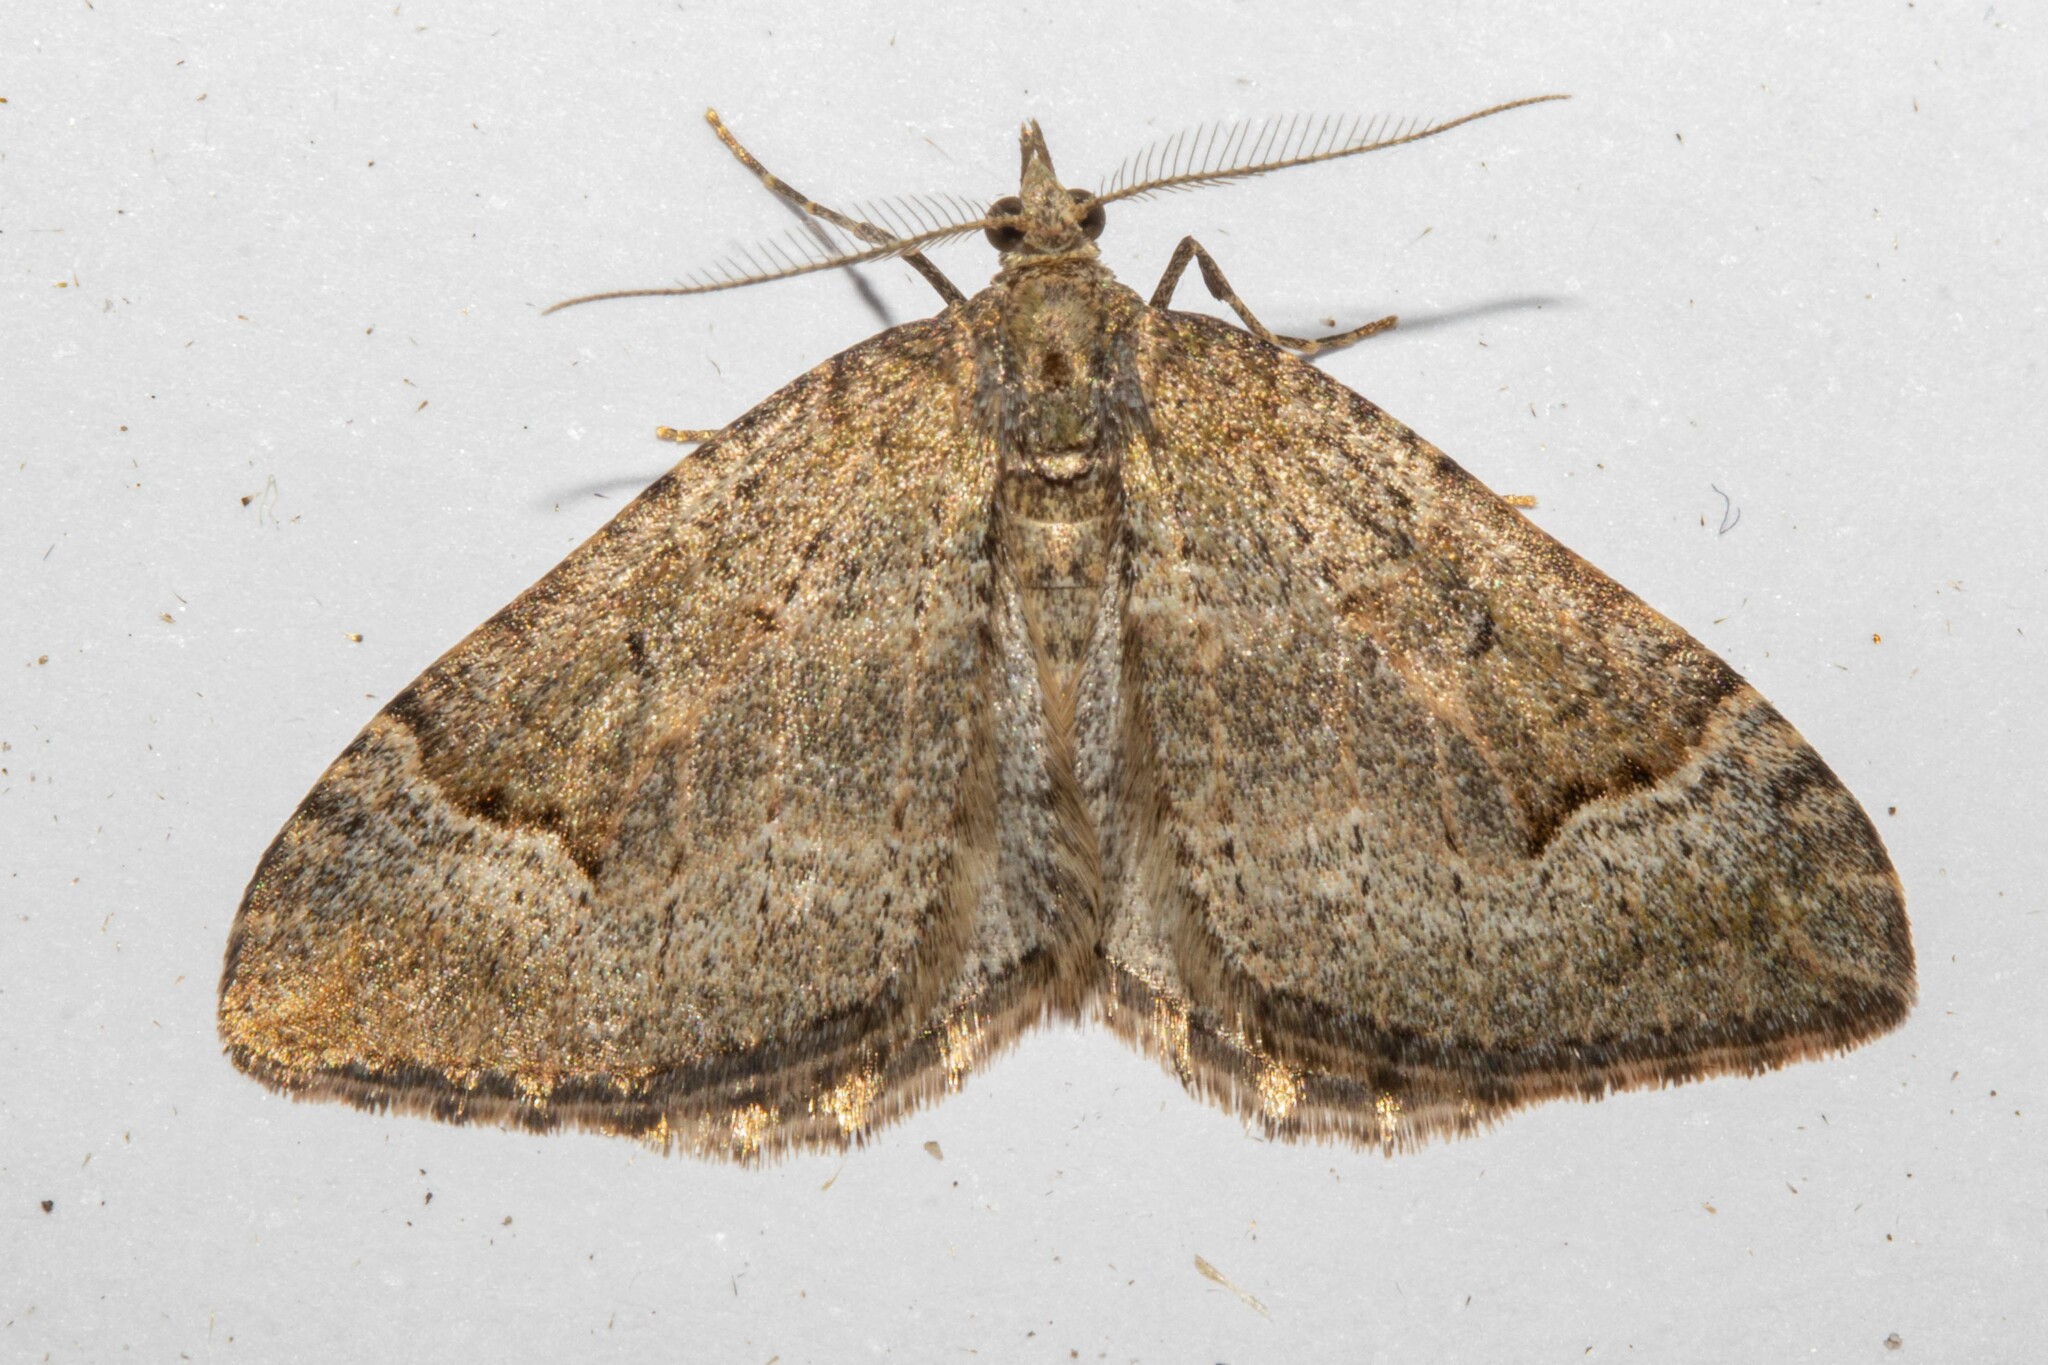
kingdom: Animalia
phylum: Arthropoda
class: Insecta
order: Lepidoptera
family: Geometridae
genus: Epyaxa
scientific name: Epyaxa rosearia
